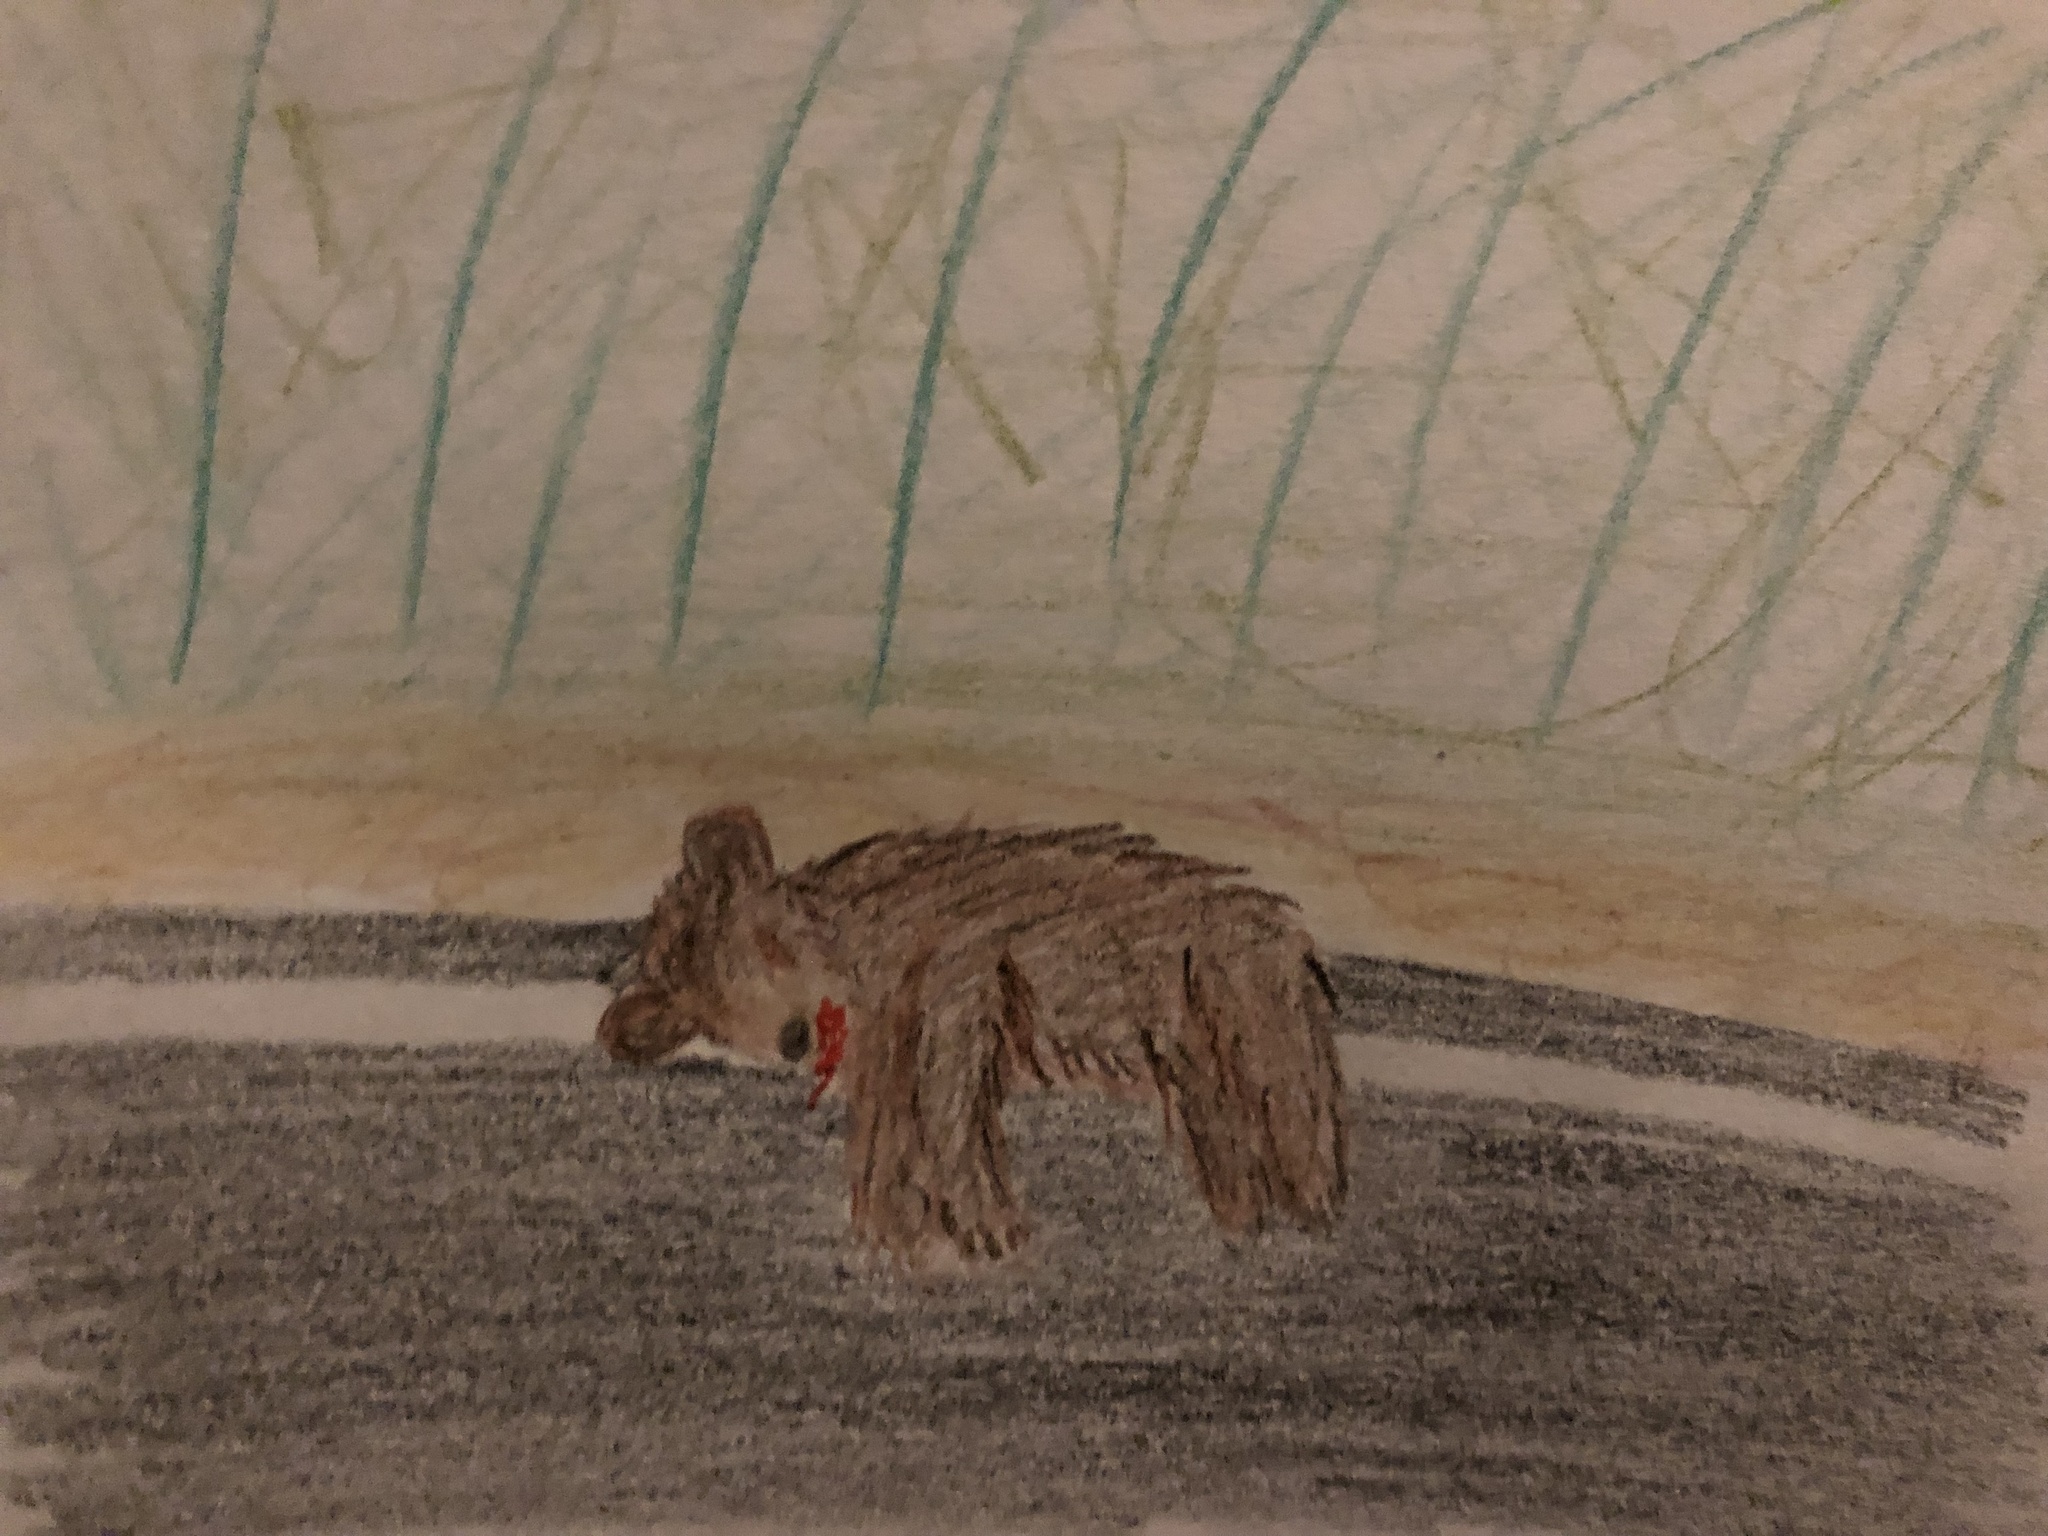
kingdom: Animalia
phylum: Chordata
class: Mammalia
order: Carnivora
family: Ursidae
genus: Ursus
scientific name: Ursus americanus
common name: American black bear
